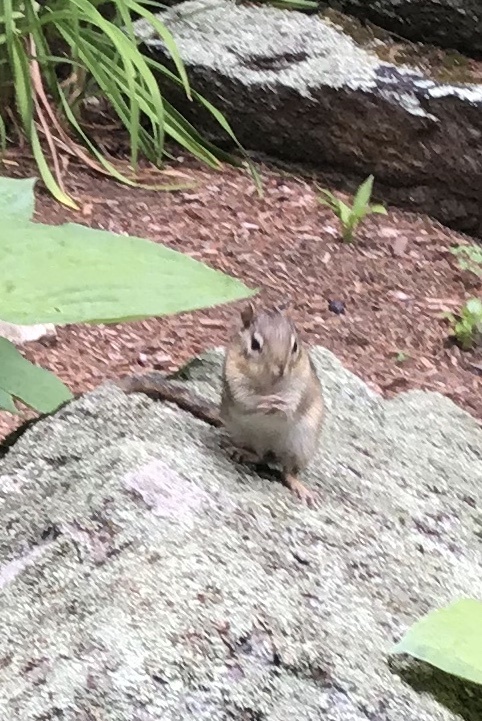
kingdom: Animalia
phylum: Chordata
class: Mammalia
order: Rodentia
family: Sciuridae
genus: Tamias
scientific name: Tamias striatus
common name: Eastern chipmunk
